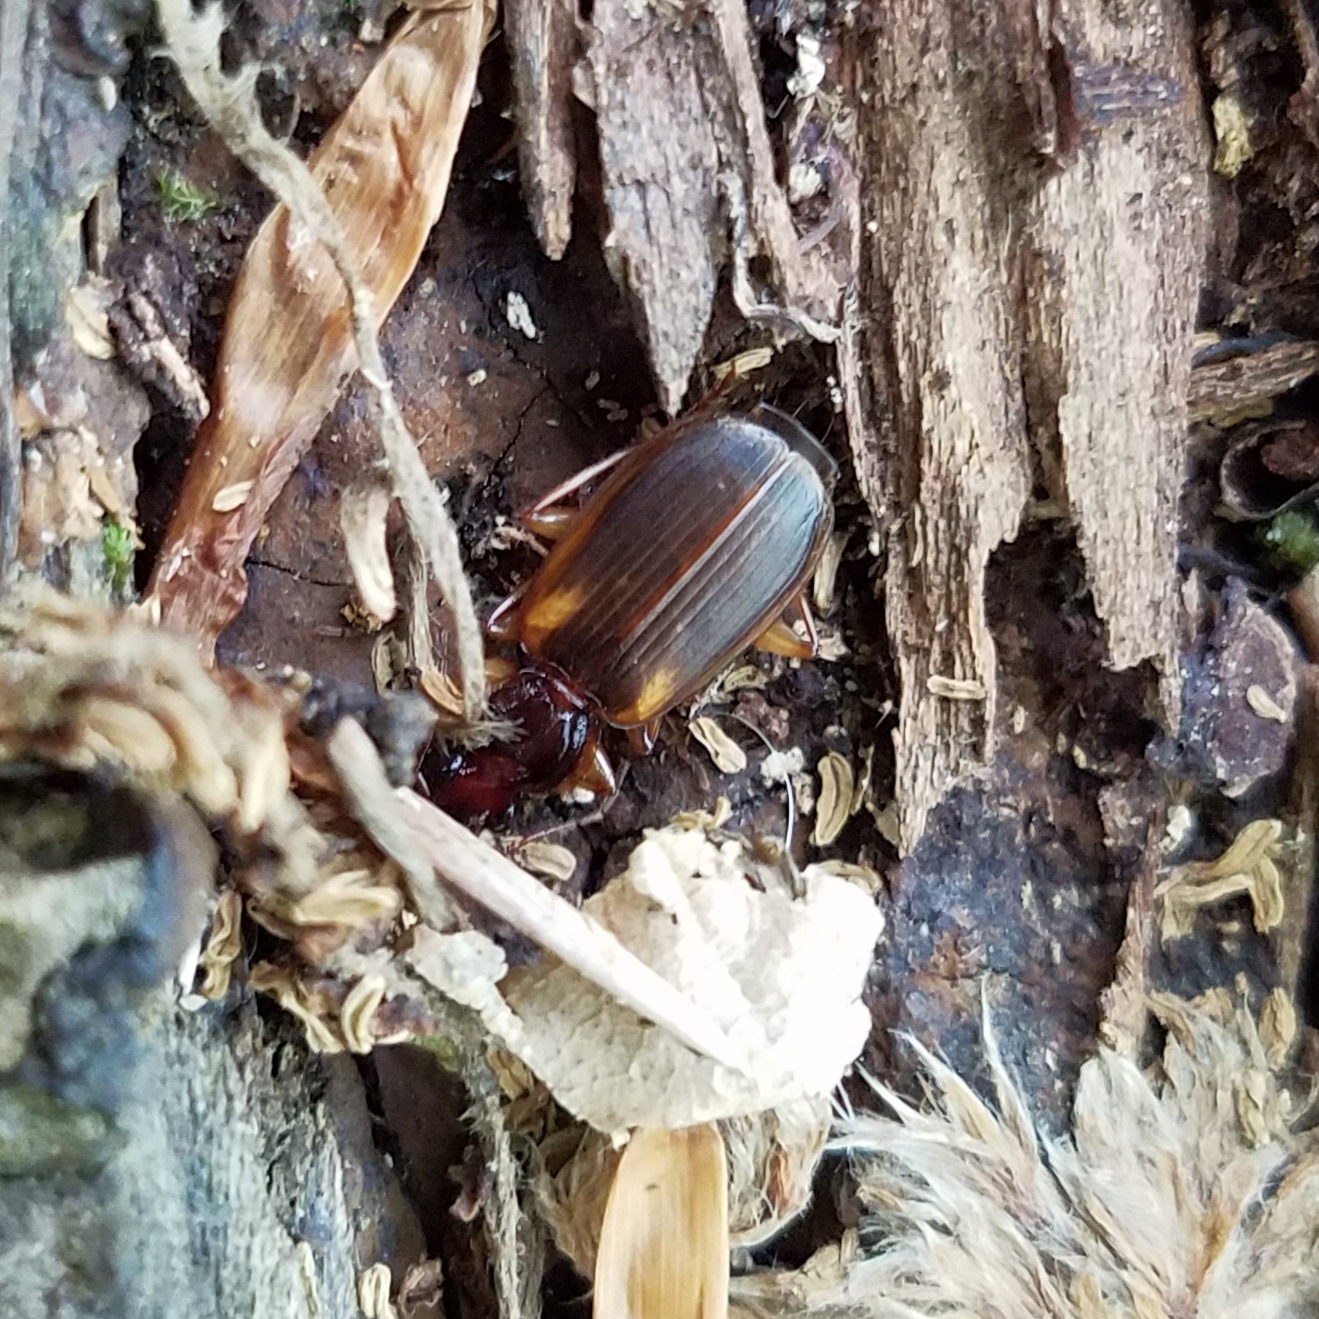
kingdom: Animalia
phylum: Arthropoda
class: Insecta
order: Coleoptera
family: Carabidae
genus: Pinacodera
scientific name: Pinacodera limbata
